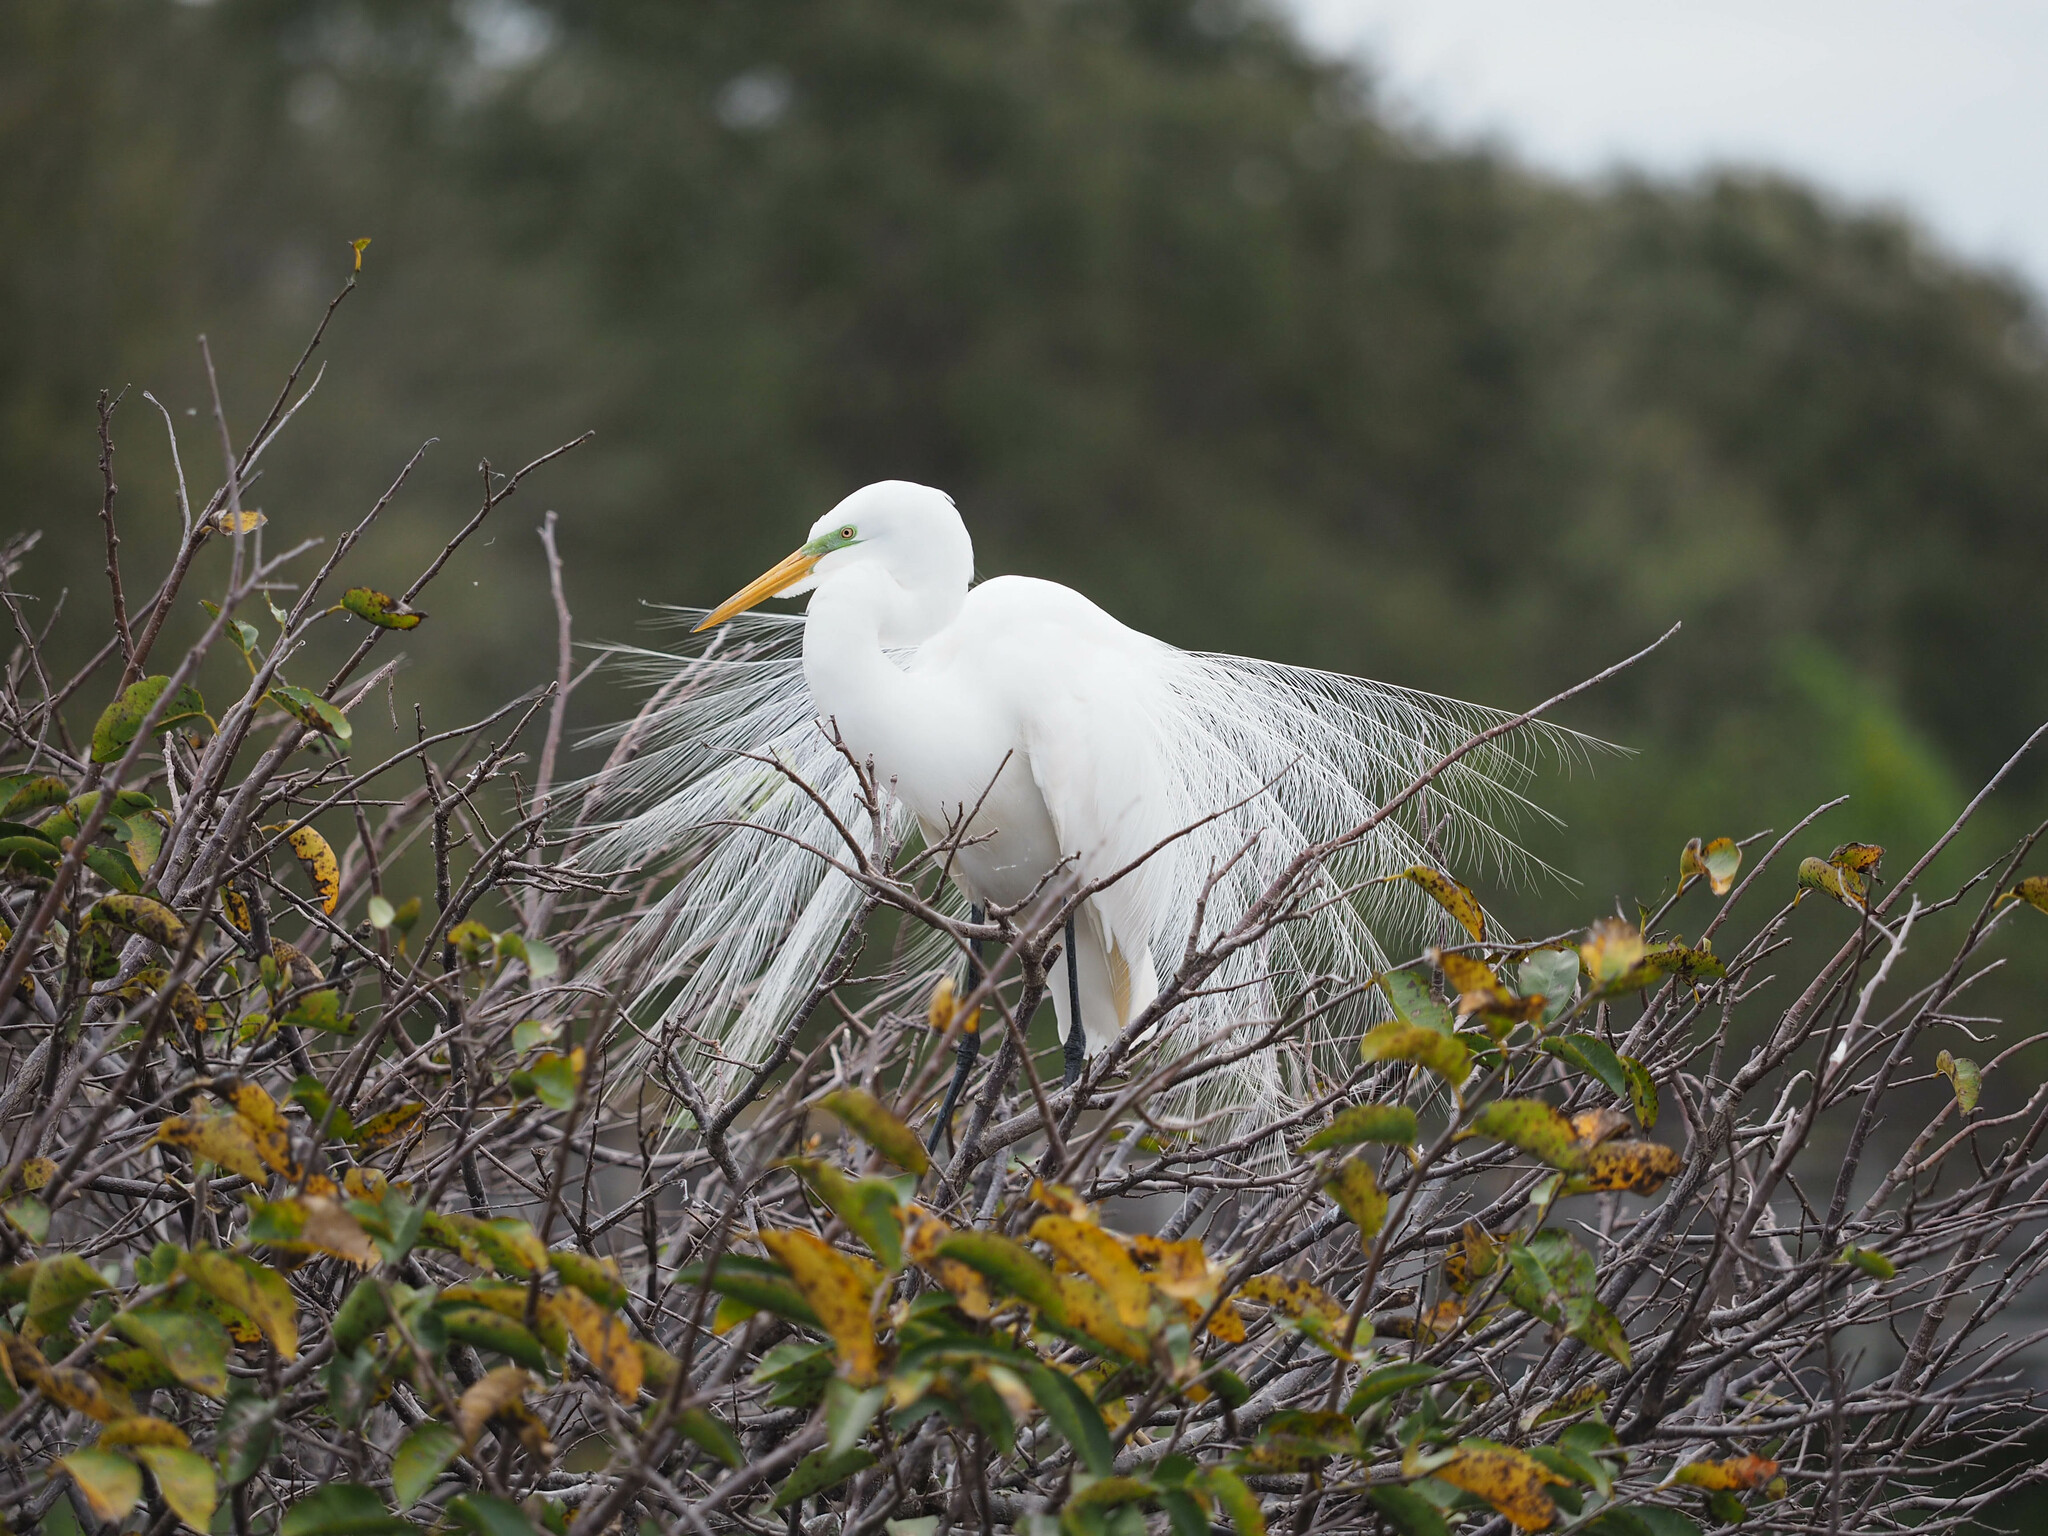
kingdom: Animalia
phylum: Chordata
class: Aves
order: Pelecaniformes
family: Ardeidae
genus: Ardea
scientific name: Ardea alba
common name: Great egret
